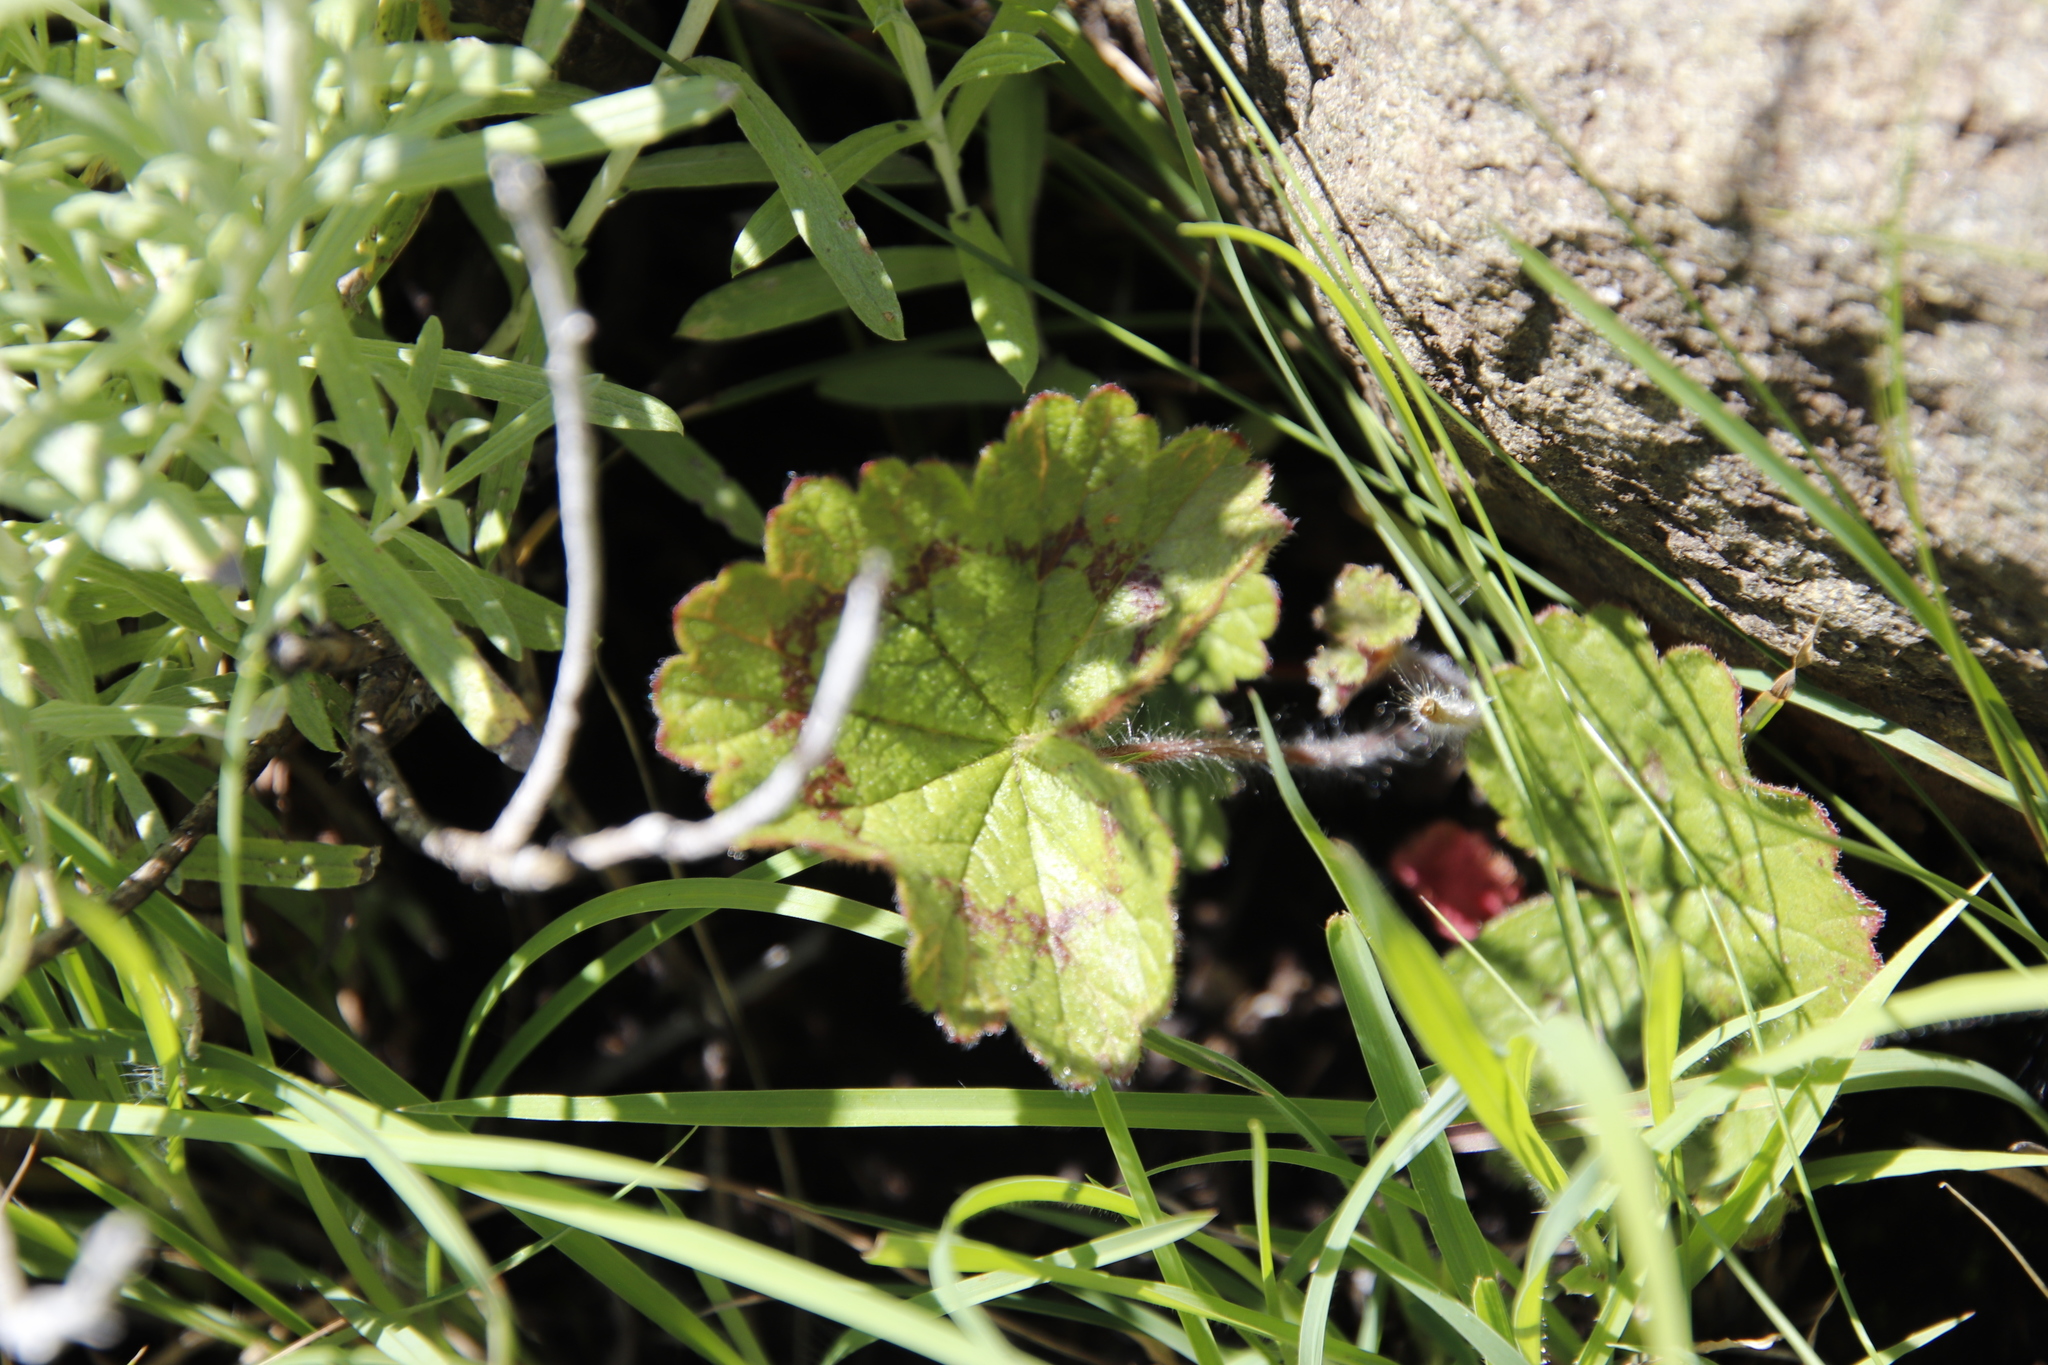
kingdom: Plantae
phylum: Tracheophyta
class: Magnoliopsida
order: Geraniales
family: Geraniaceae
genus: Pelargonium
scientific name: Pelargonium ranunculophyllum
